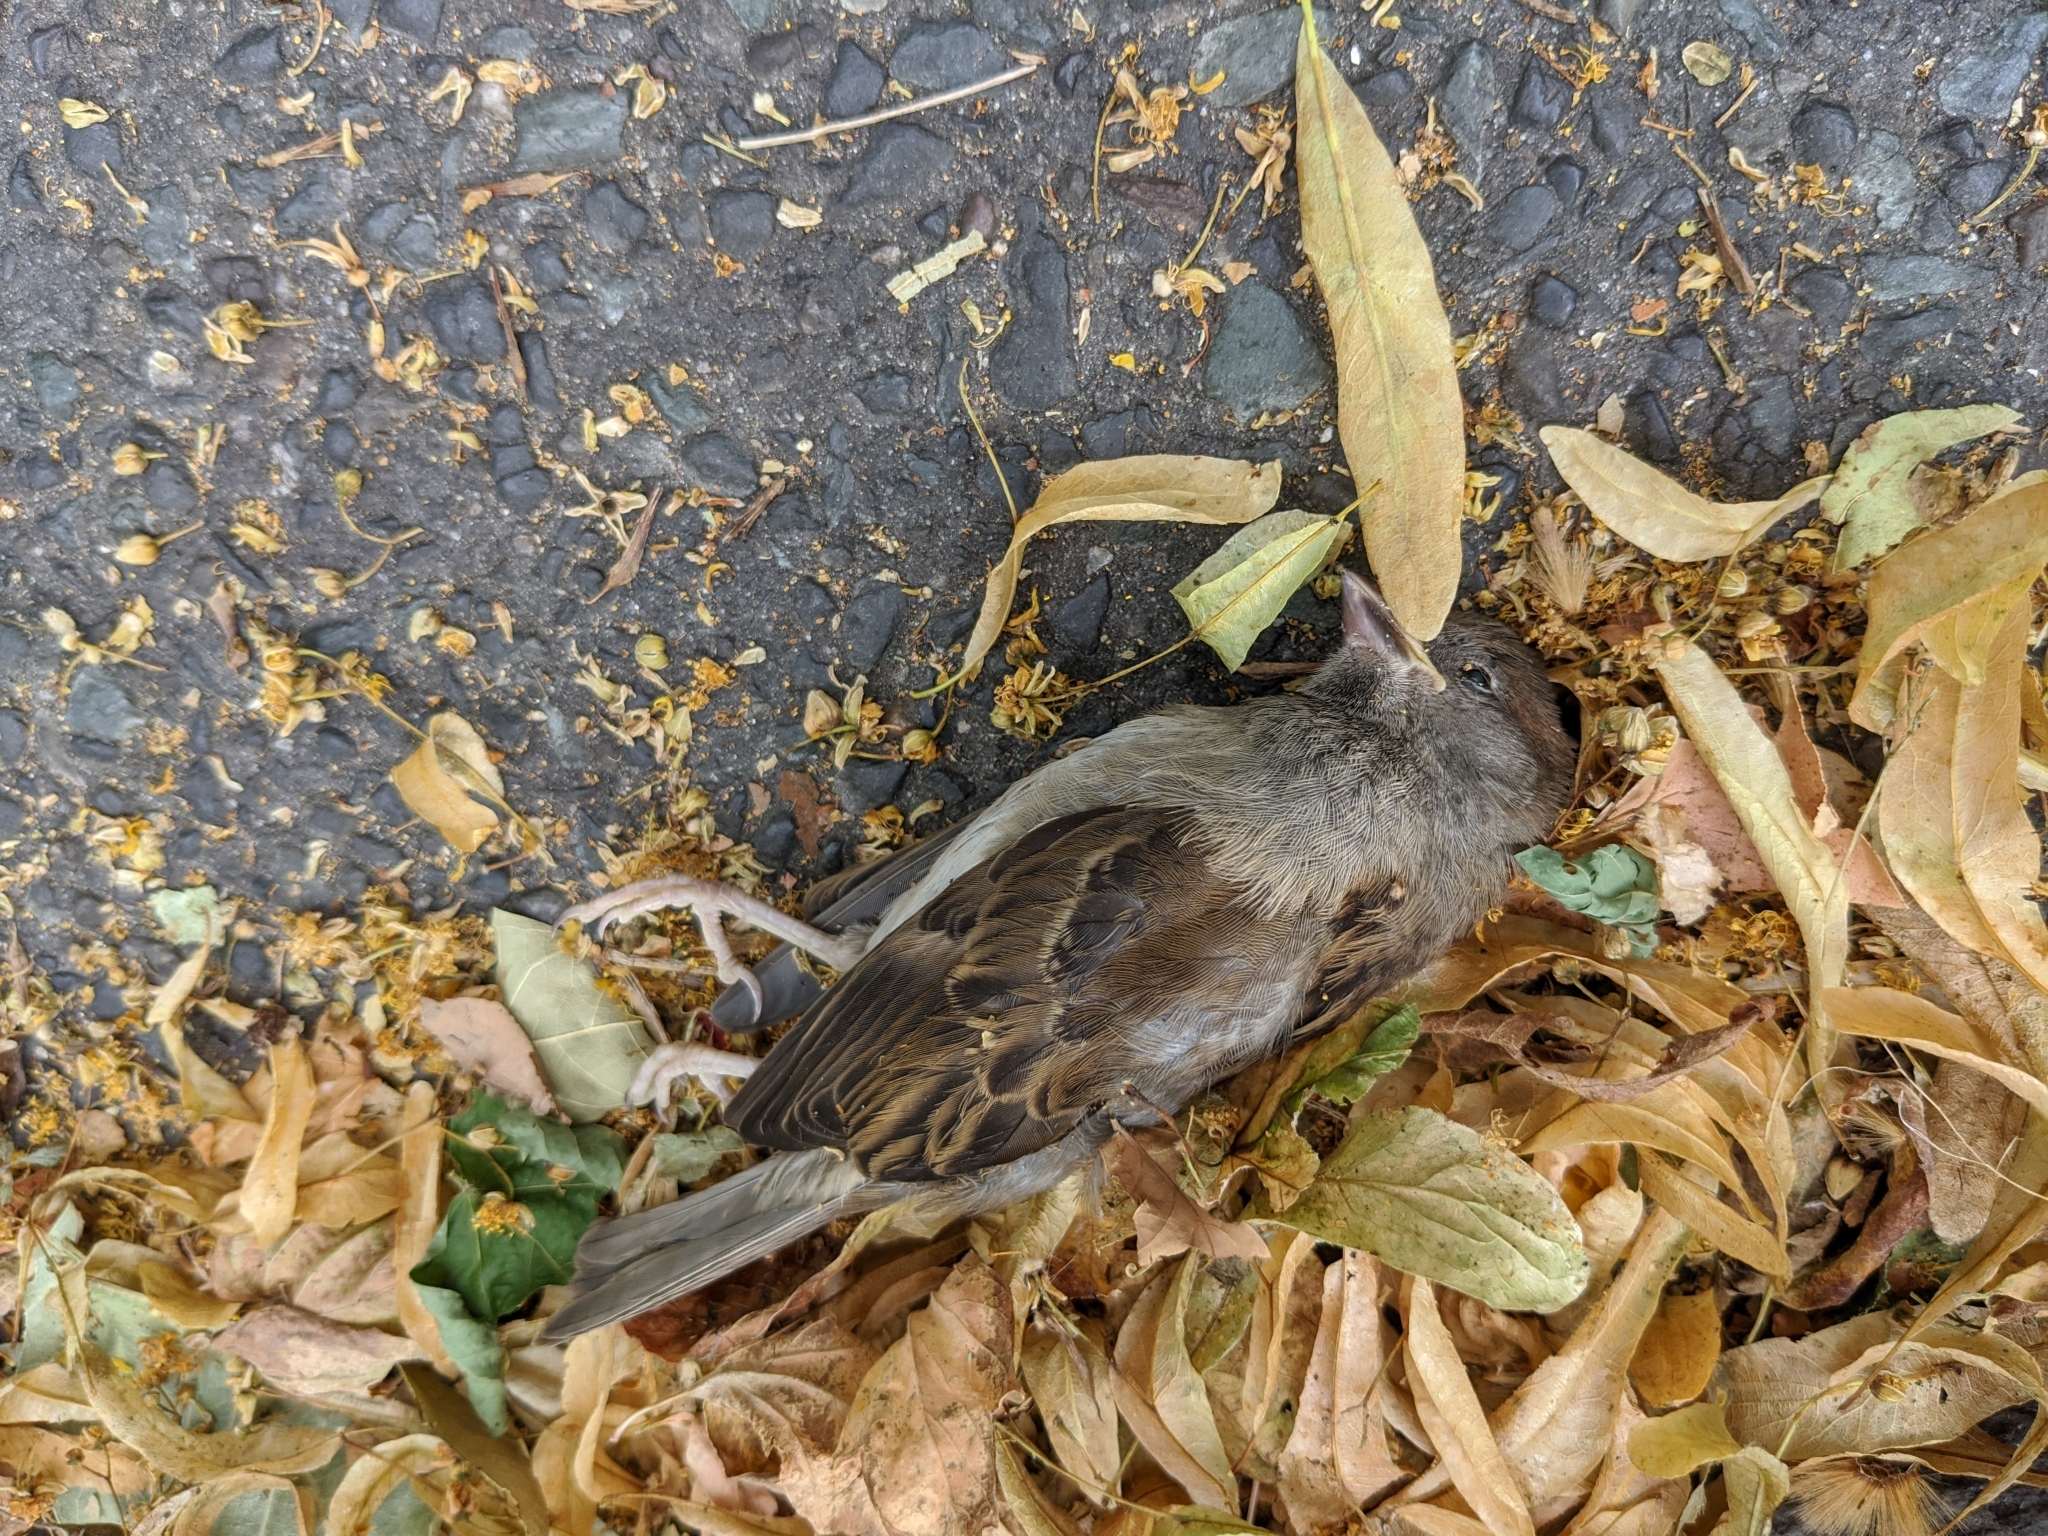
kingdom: Animalia
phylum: Chordata
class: Aves
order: Passeriformes
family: Passeridae
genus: Passer
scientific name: Passer domesticus
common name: House sparrow
